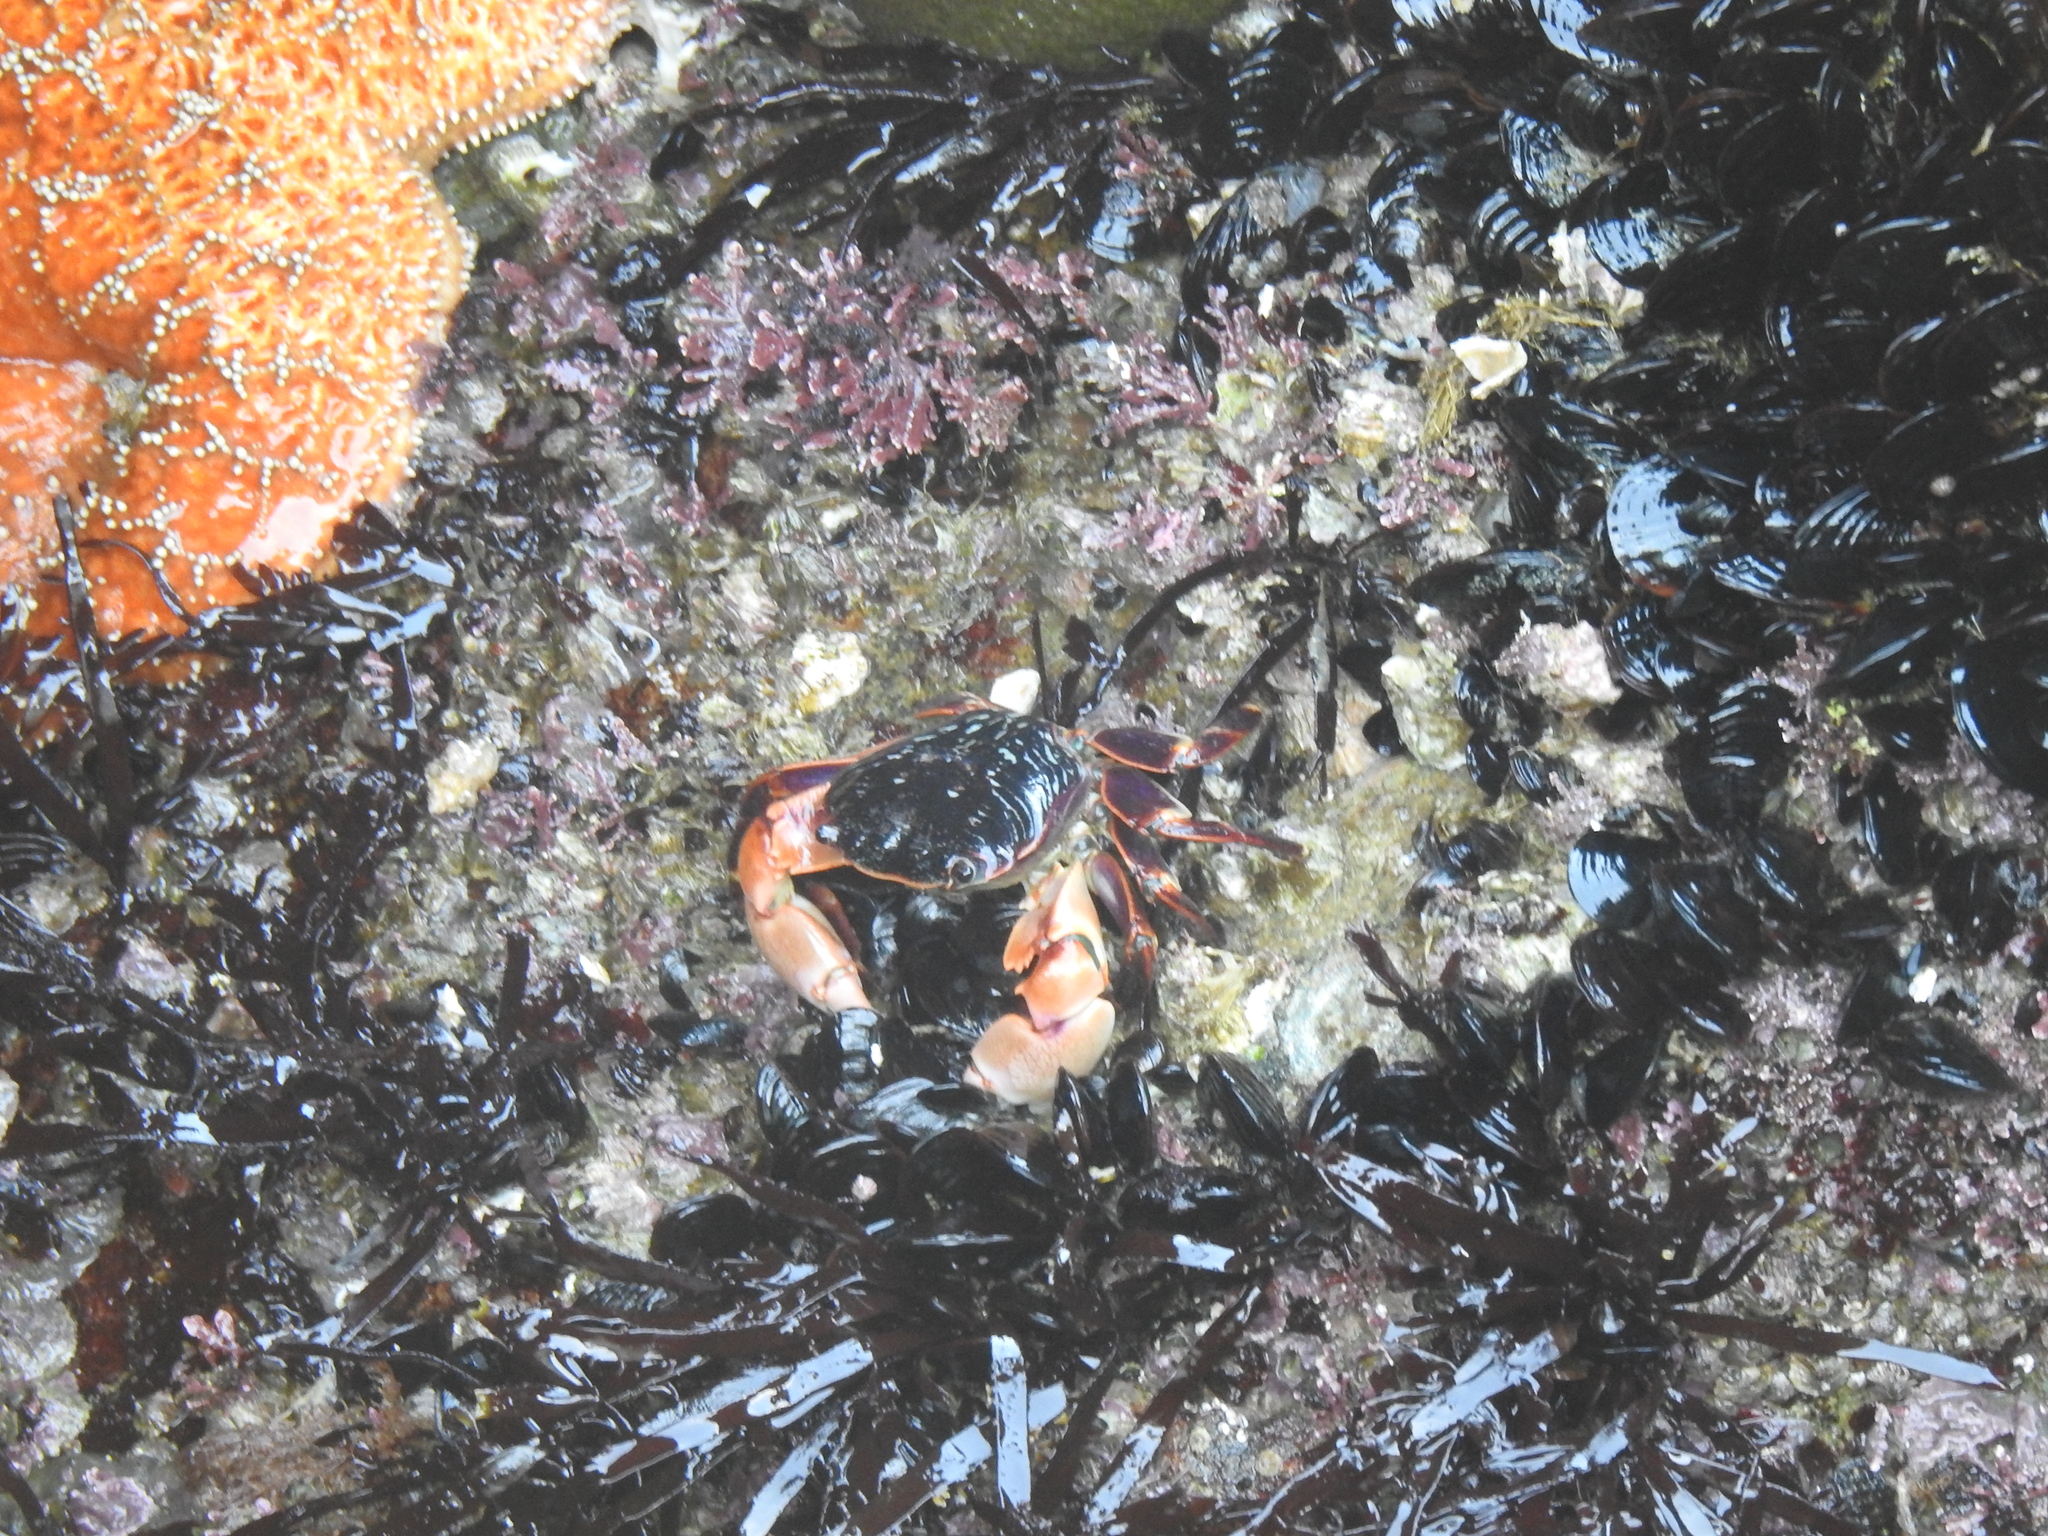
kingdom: Animalia
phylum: Arthropoda
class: Malacostraca
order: Decapoda
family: Grapsidae
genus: Pachygrapsus
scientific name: Pachygrapsus crassipes
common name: Striped shore crab
